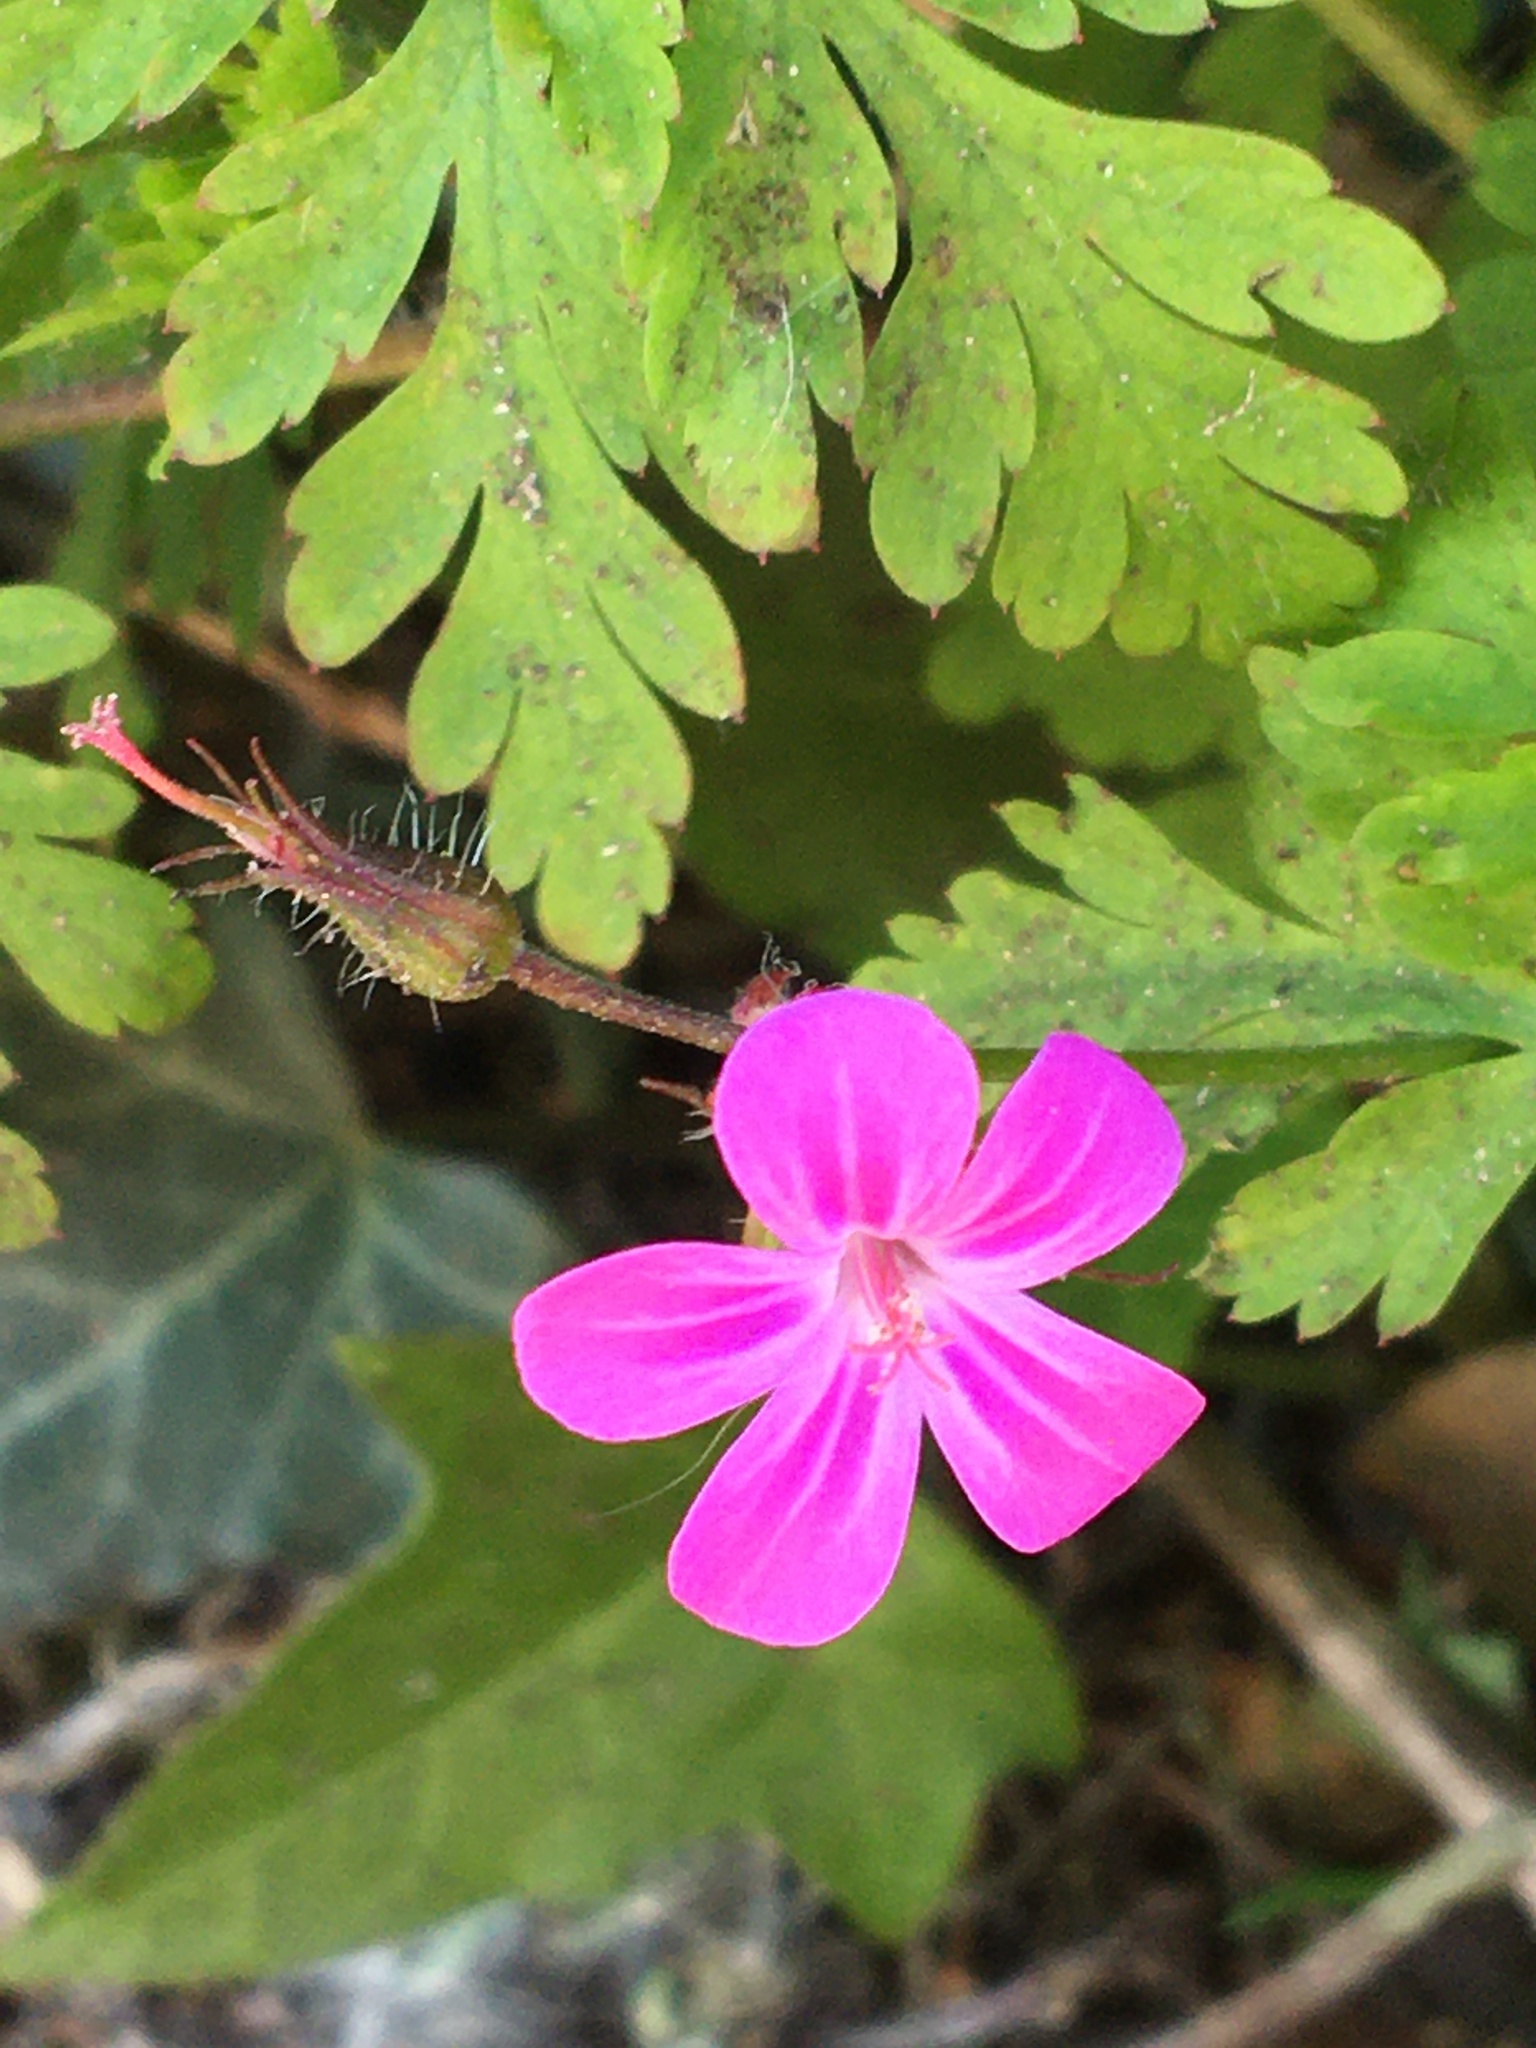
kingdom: Plantae
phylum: Tracheophyta
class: Magnoliopsida
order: Geraniales
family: Geraniaceae
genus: Geranium
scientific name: Geranium robertianum
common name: Herb-robert
